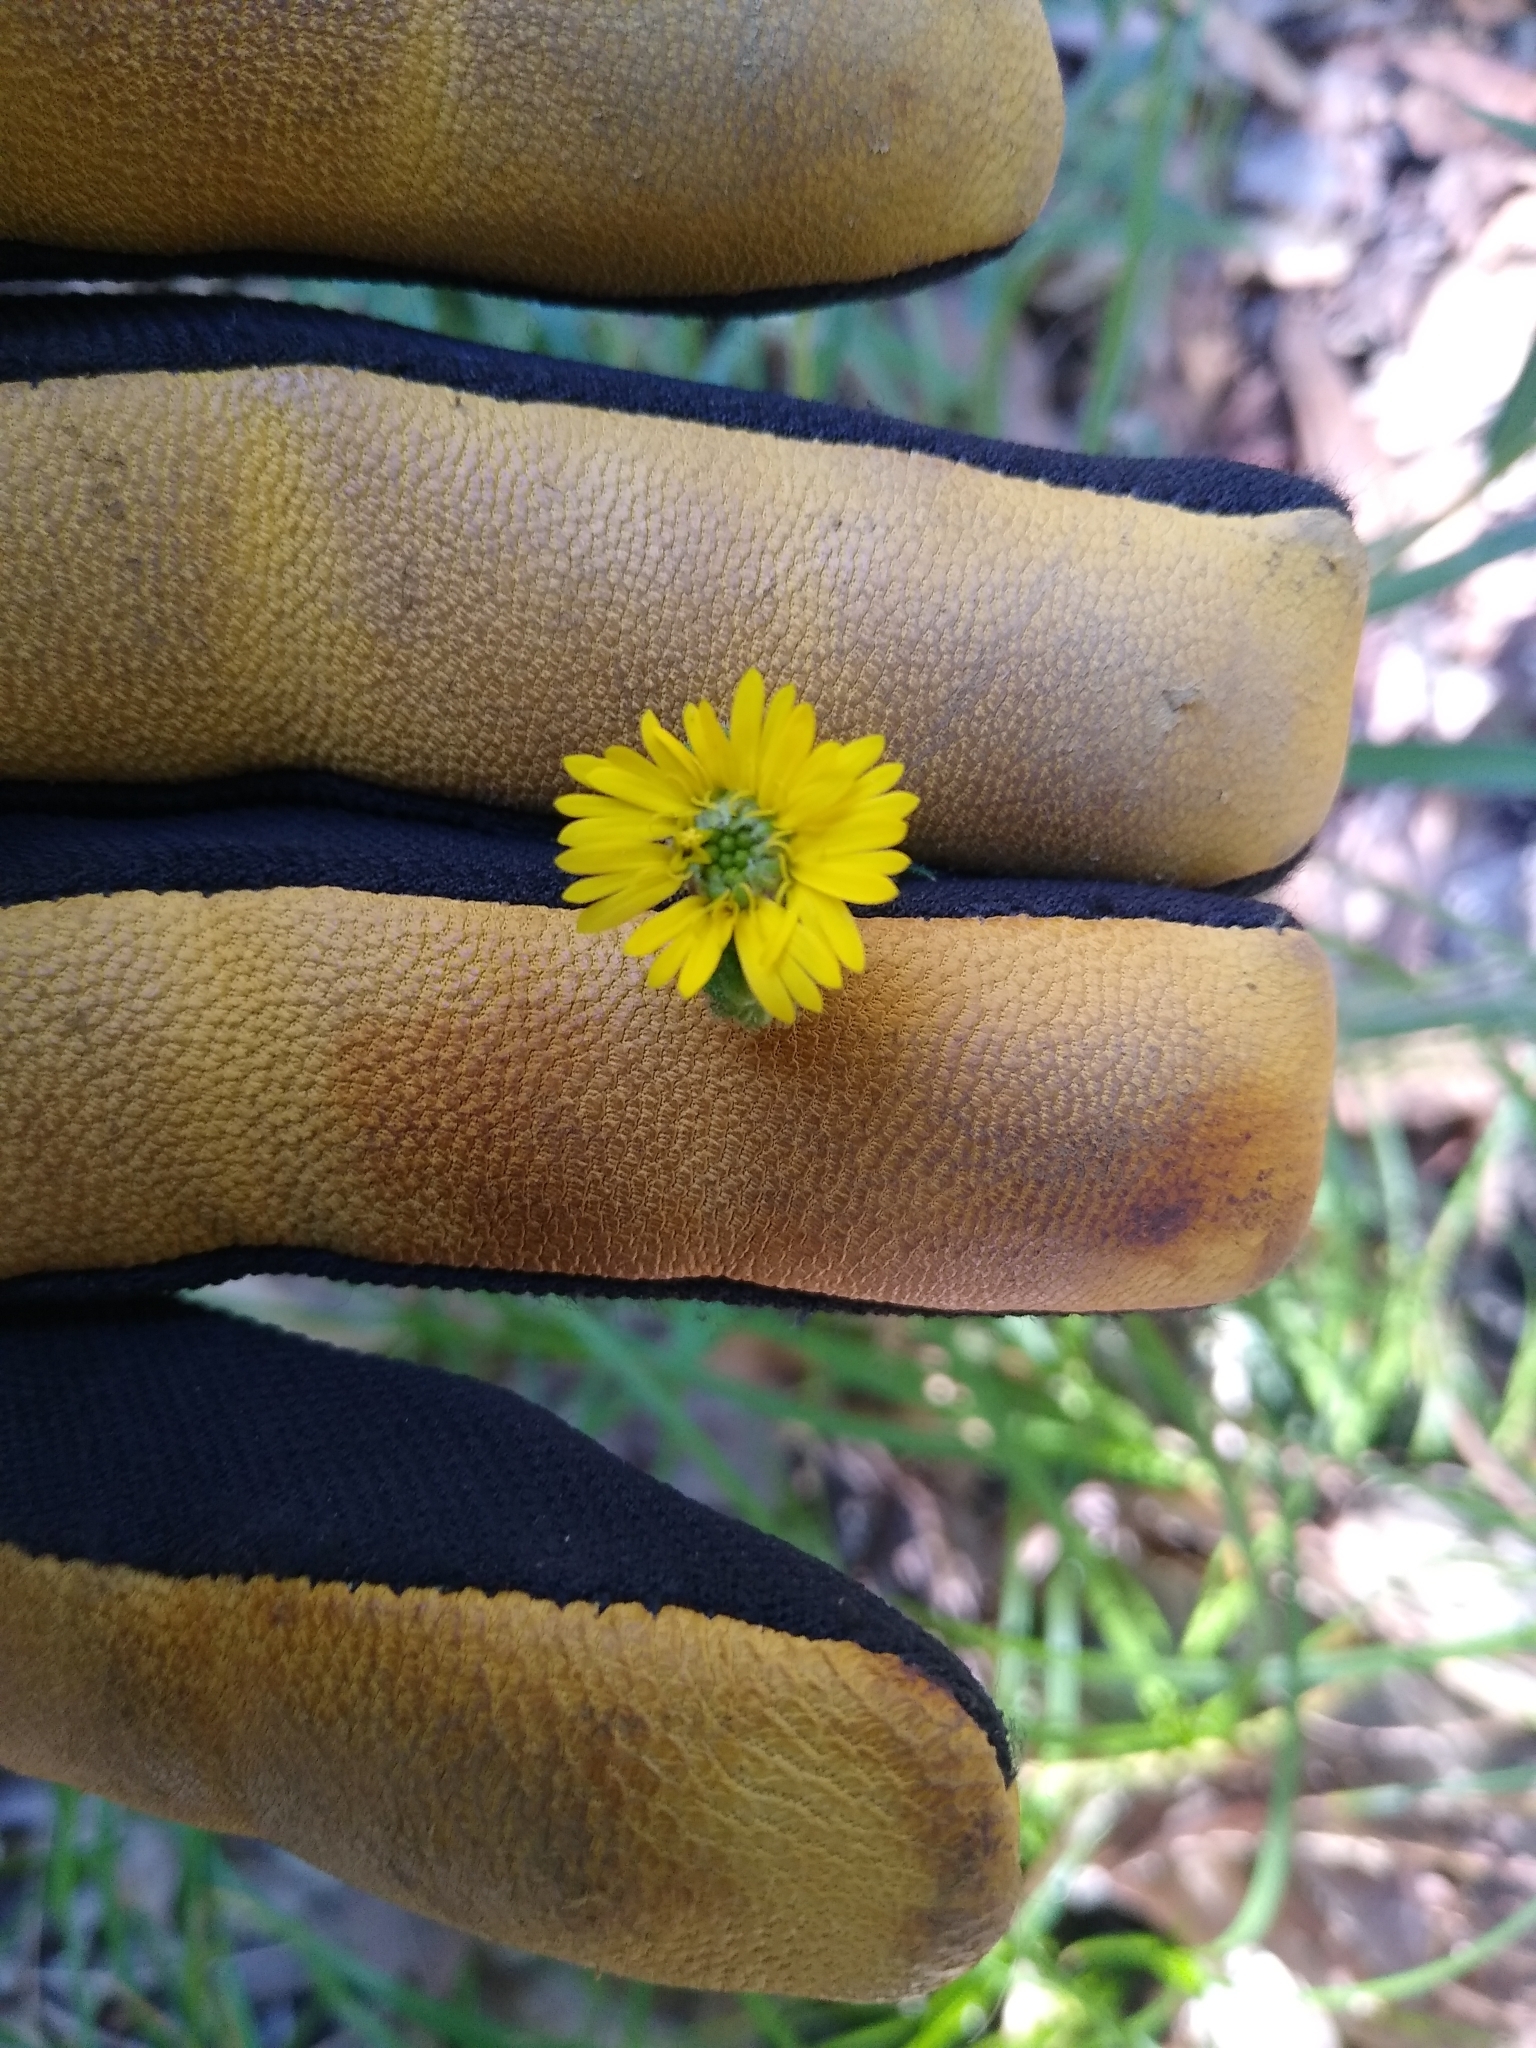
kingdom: Plantae
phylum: Tracheophyta
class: Magnoliopsida
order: Asterales
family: Asteraceae
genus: Anisocarpus
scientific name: Anisocarpus madioides
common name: Woodland madia
